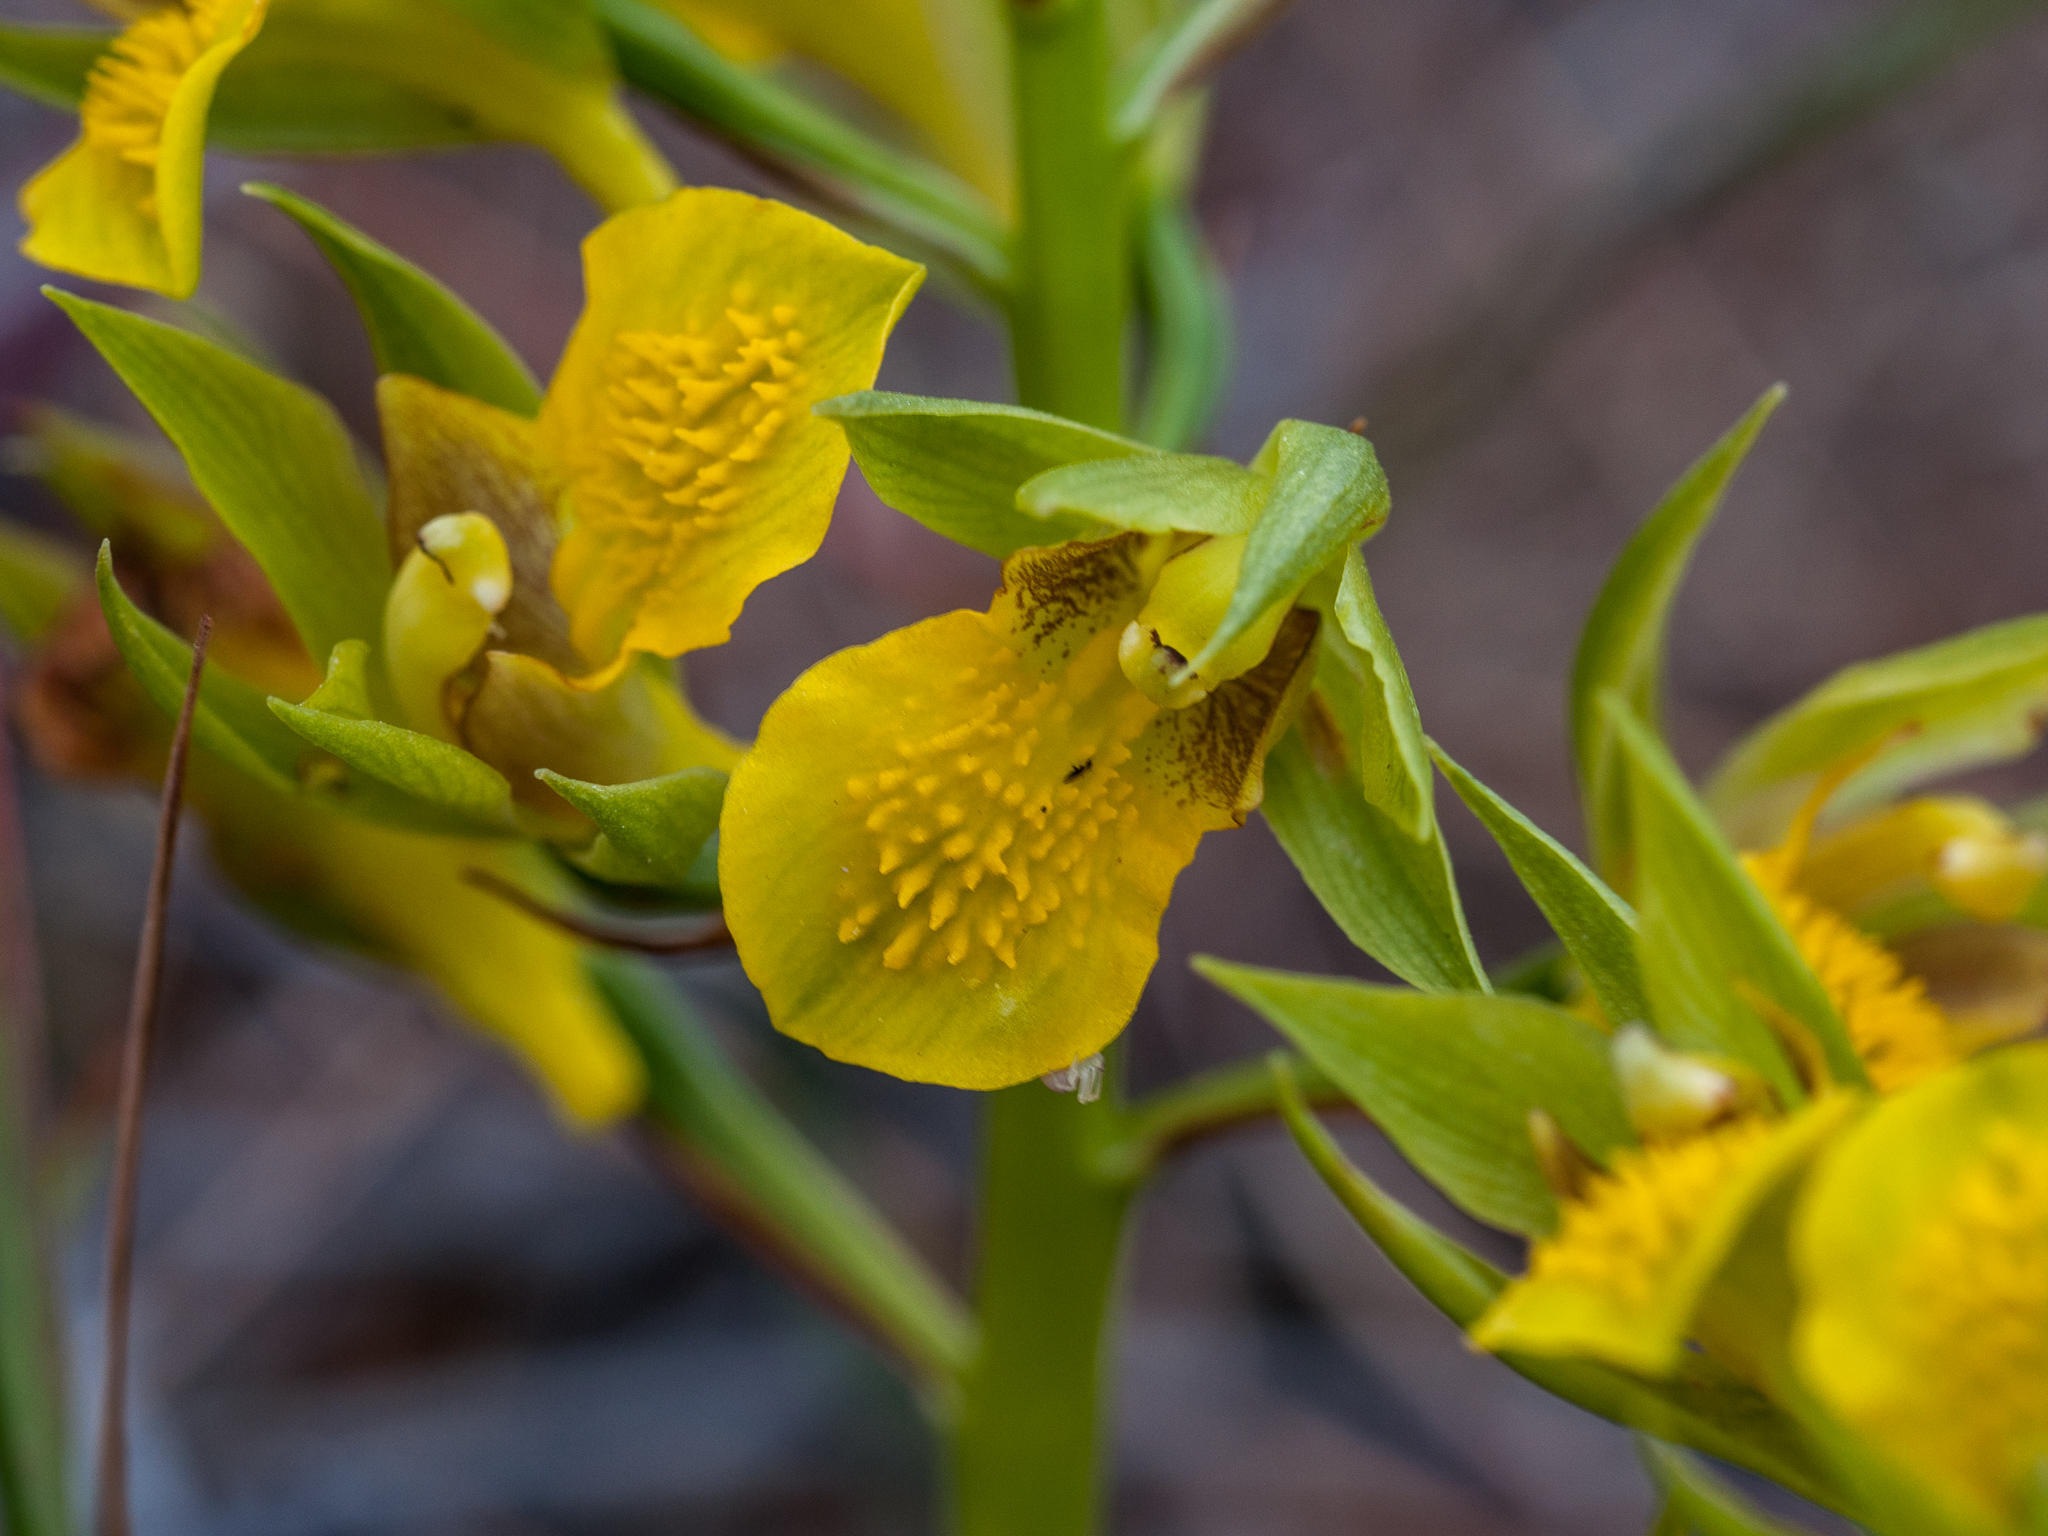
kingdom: Plantae
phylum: Tracheophyta
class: Liliopsida
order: Asparagales
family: Orchidaceae
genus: Eulophia
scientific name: Eulophia litoralis
